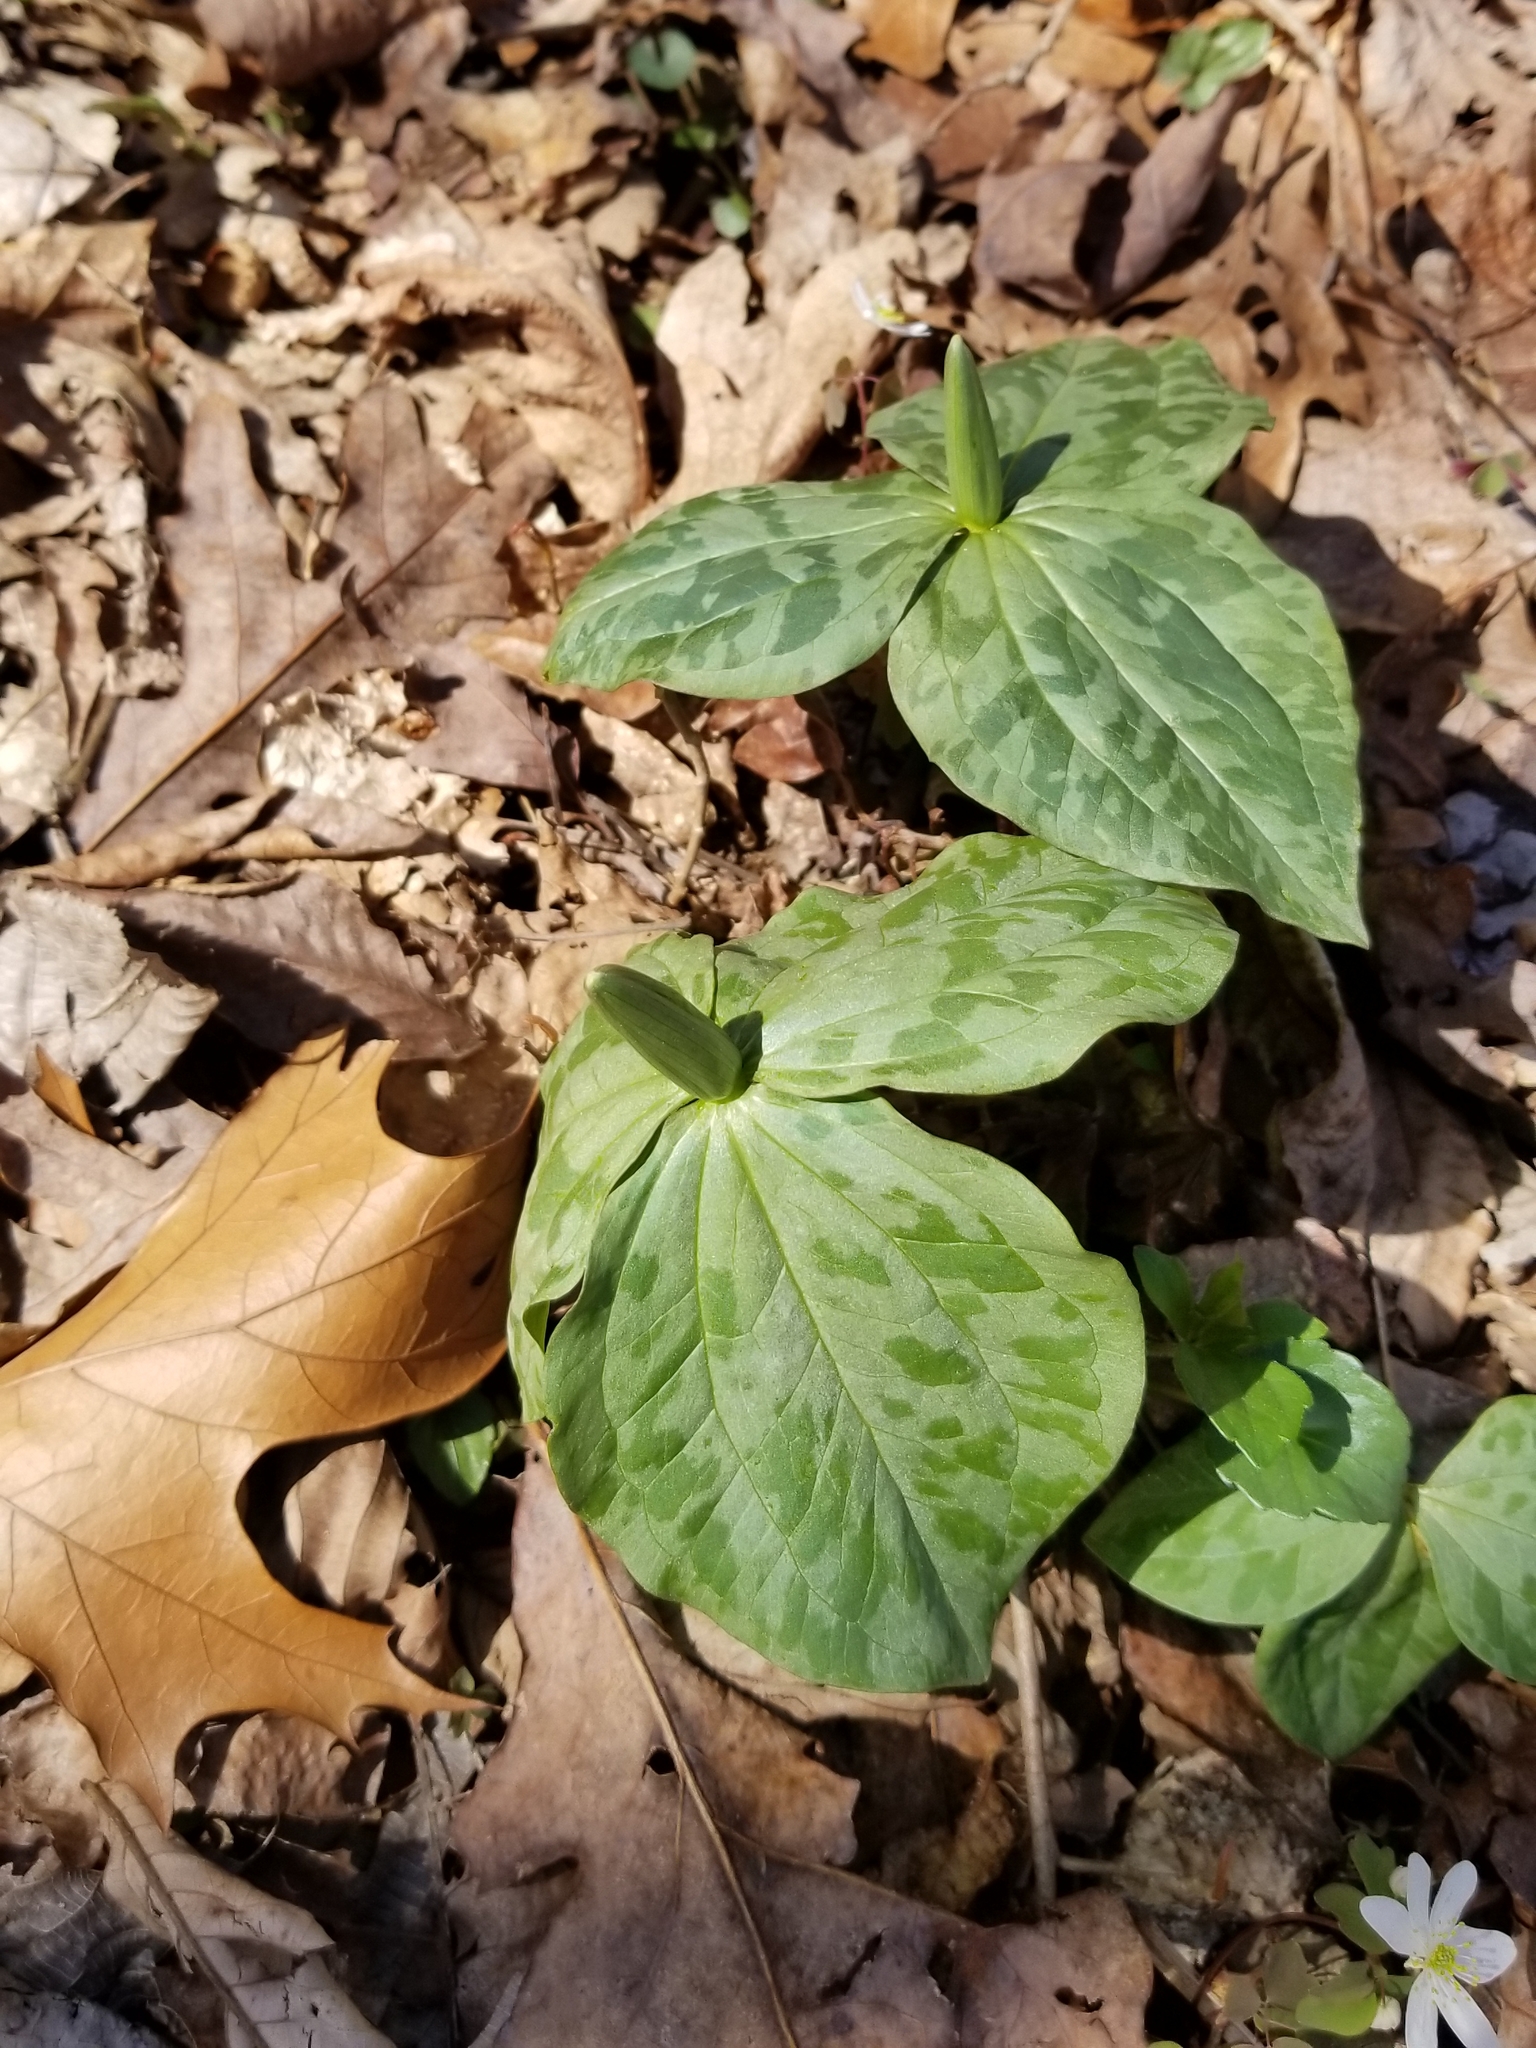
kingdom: Plantae
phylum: Tracheophyta
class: Liliopsida
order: Liliales
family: Melanthiaceae
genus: Trillium
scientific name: Trillium cuneatum
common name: Cuneate trillium
